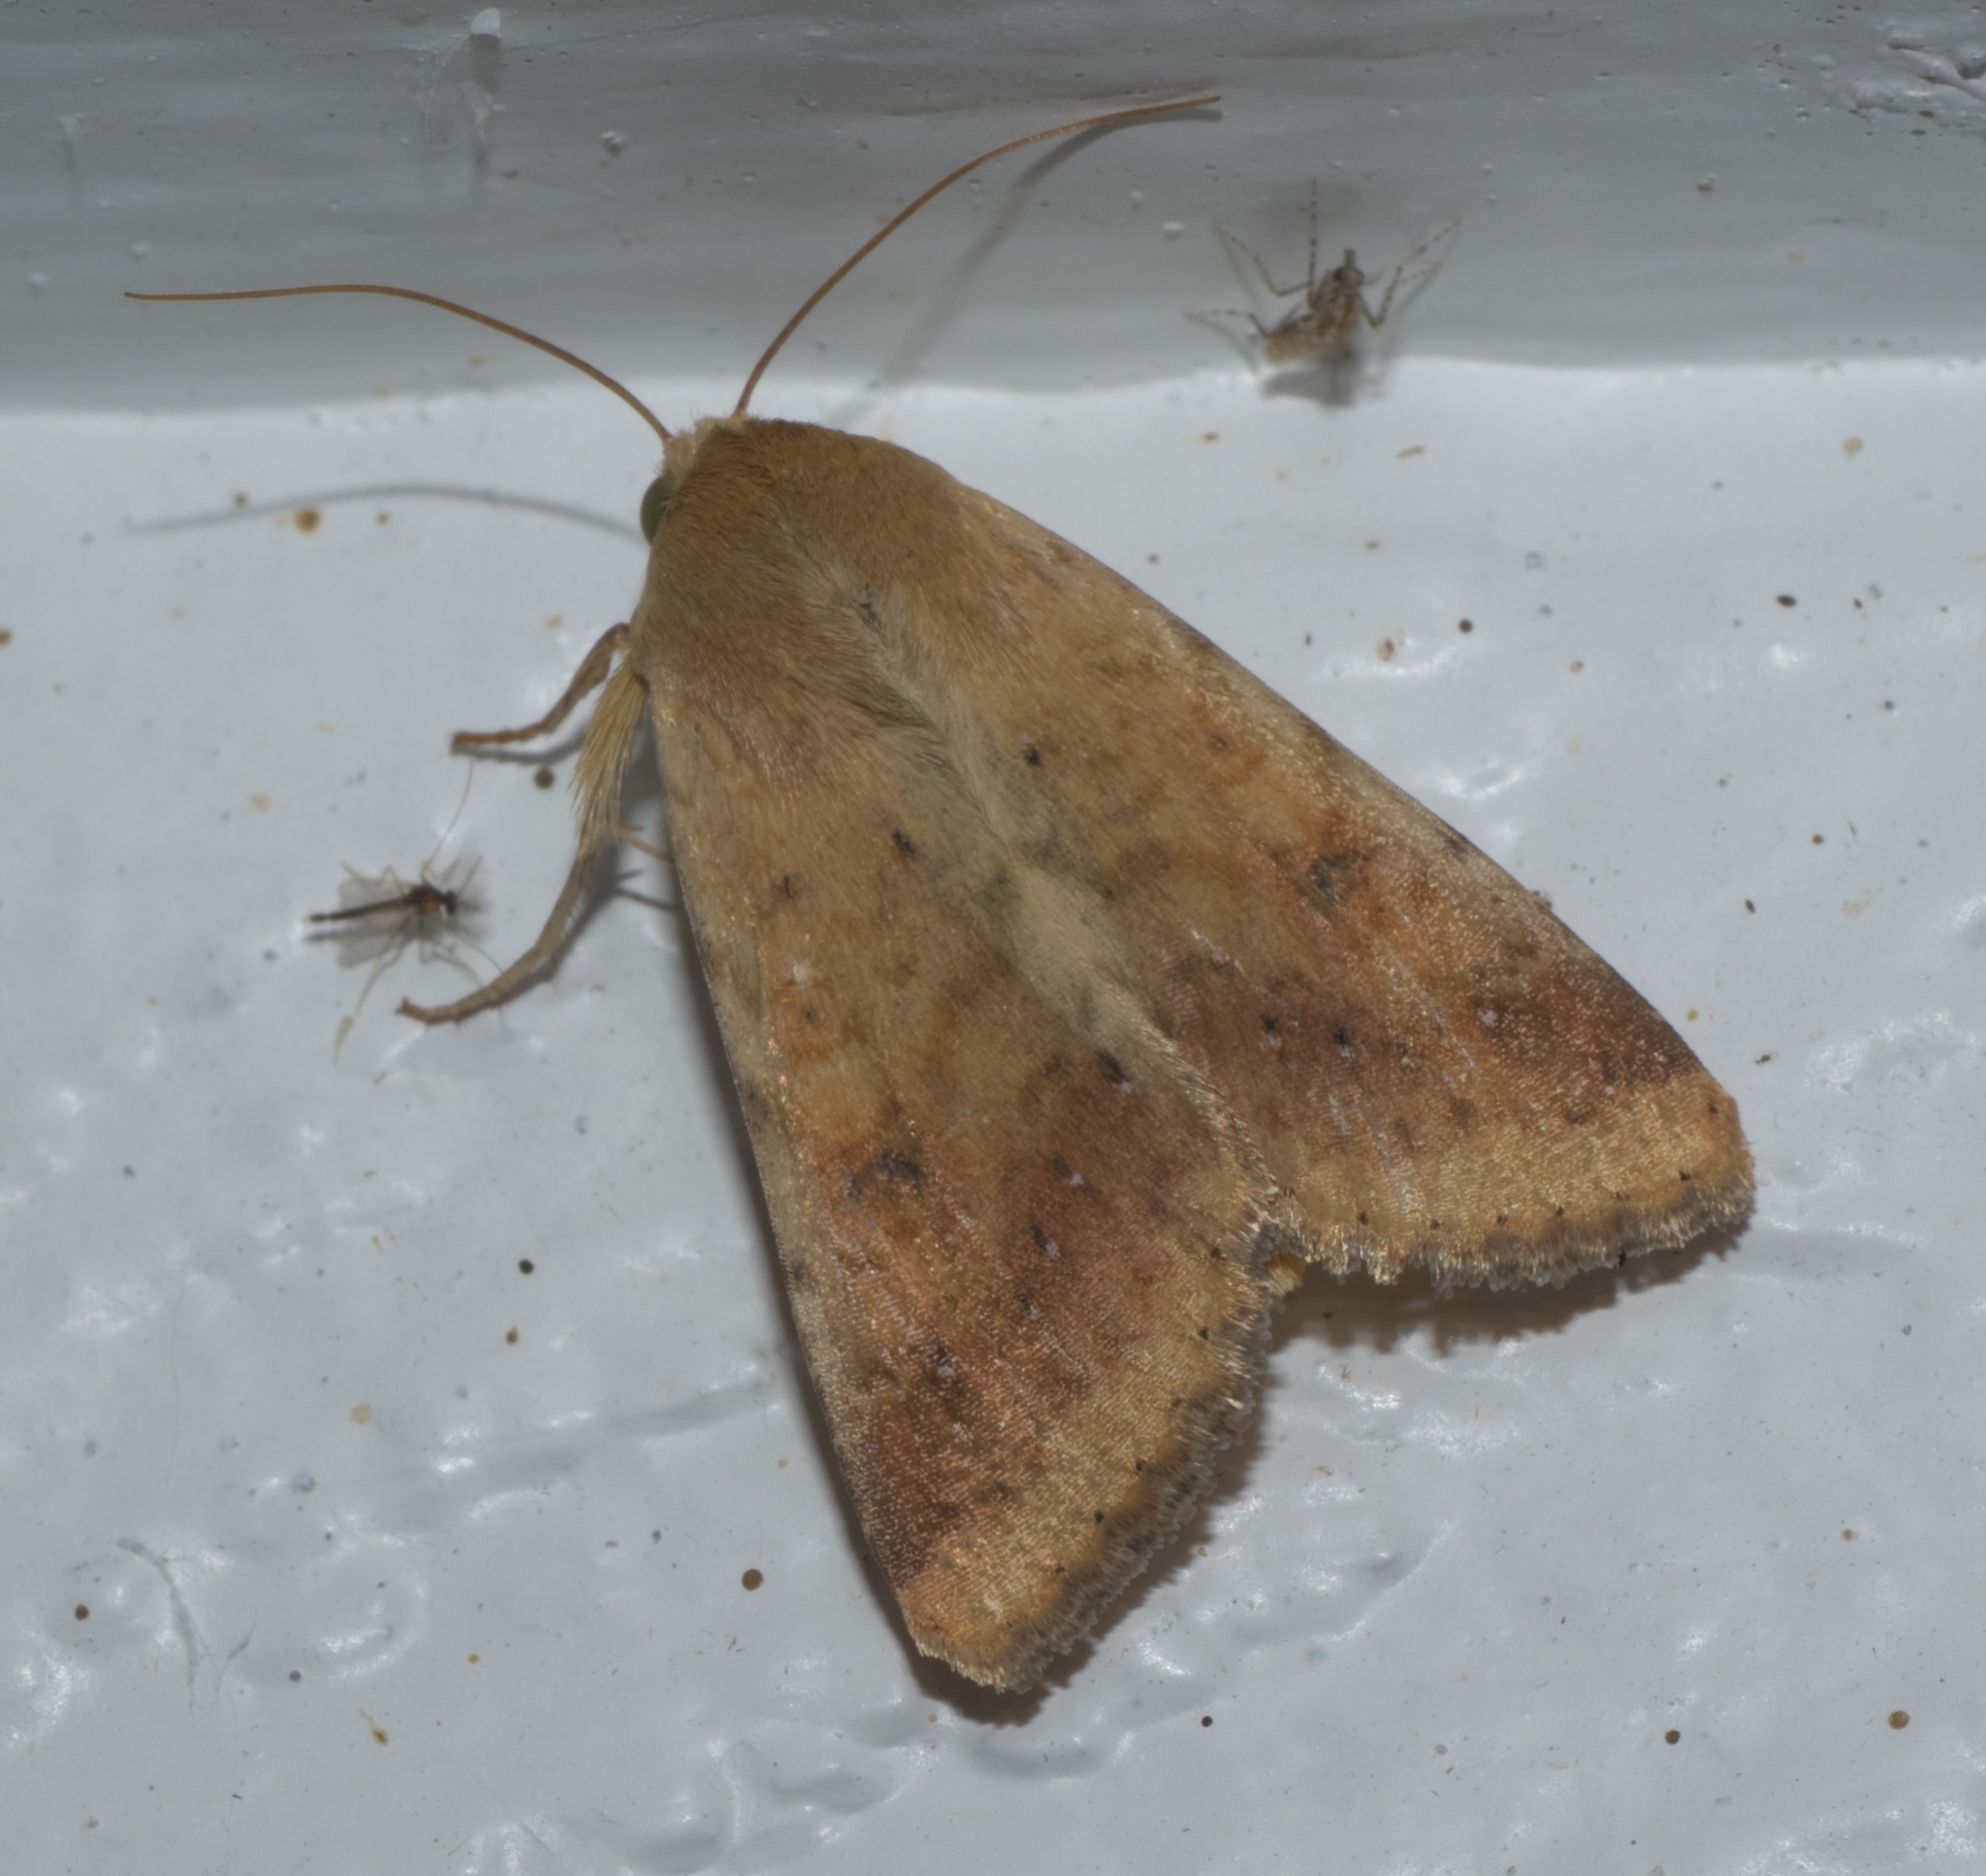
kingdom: Animalia
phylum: Arthropoda
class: Insecta
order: Lepidoptera
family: Noctuidae
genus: Helicoverpa
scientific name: Helicoverpa zea
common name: Bollworm
